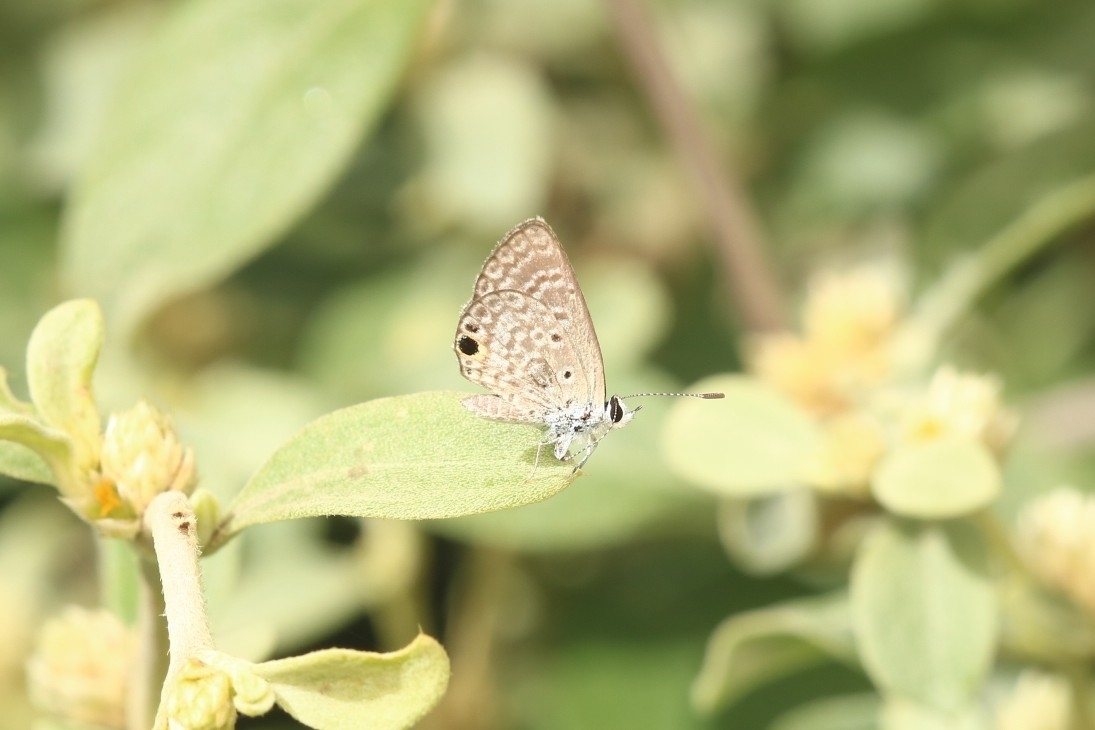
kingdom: Animalia
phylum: Arthropoda
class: Insecta
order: Lepidoptera
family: Lycaenidae
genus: Hemiargus
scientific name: Hemiargus hanno
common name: Common blue
